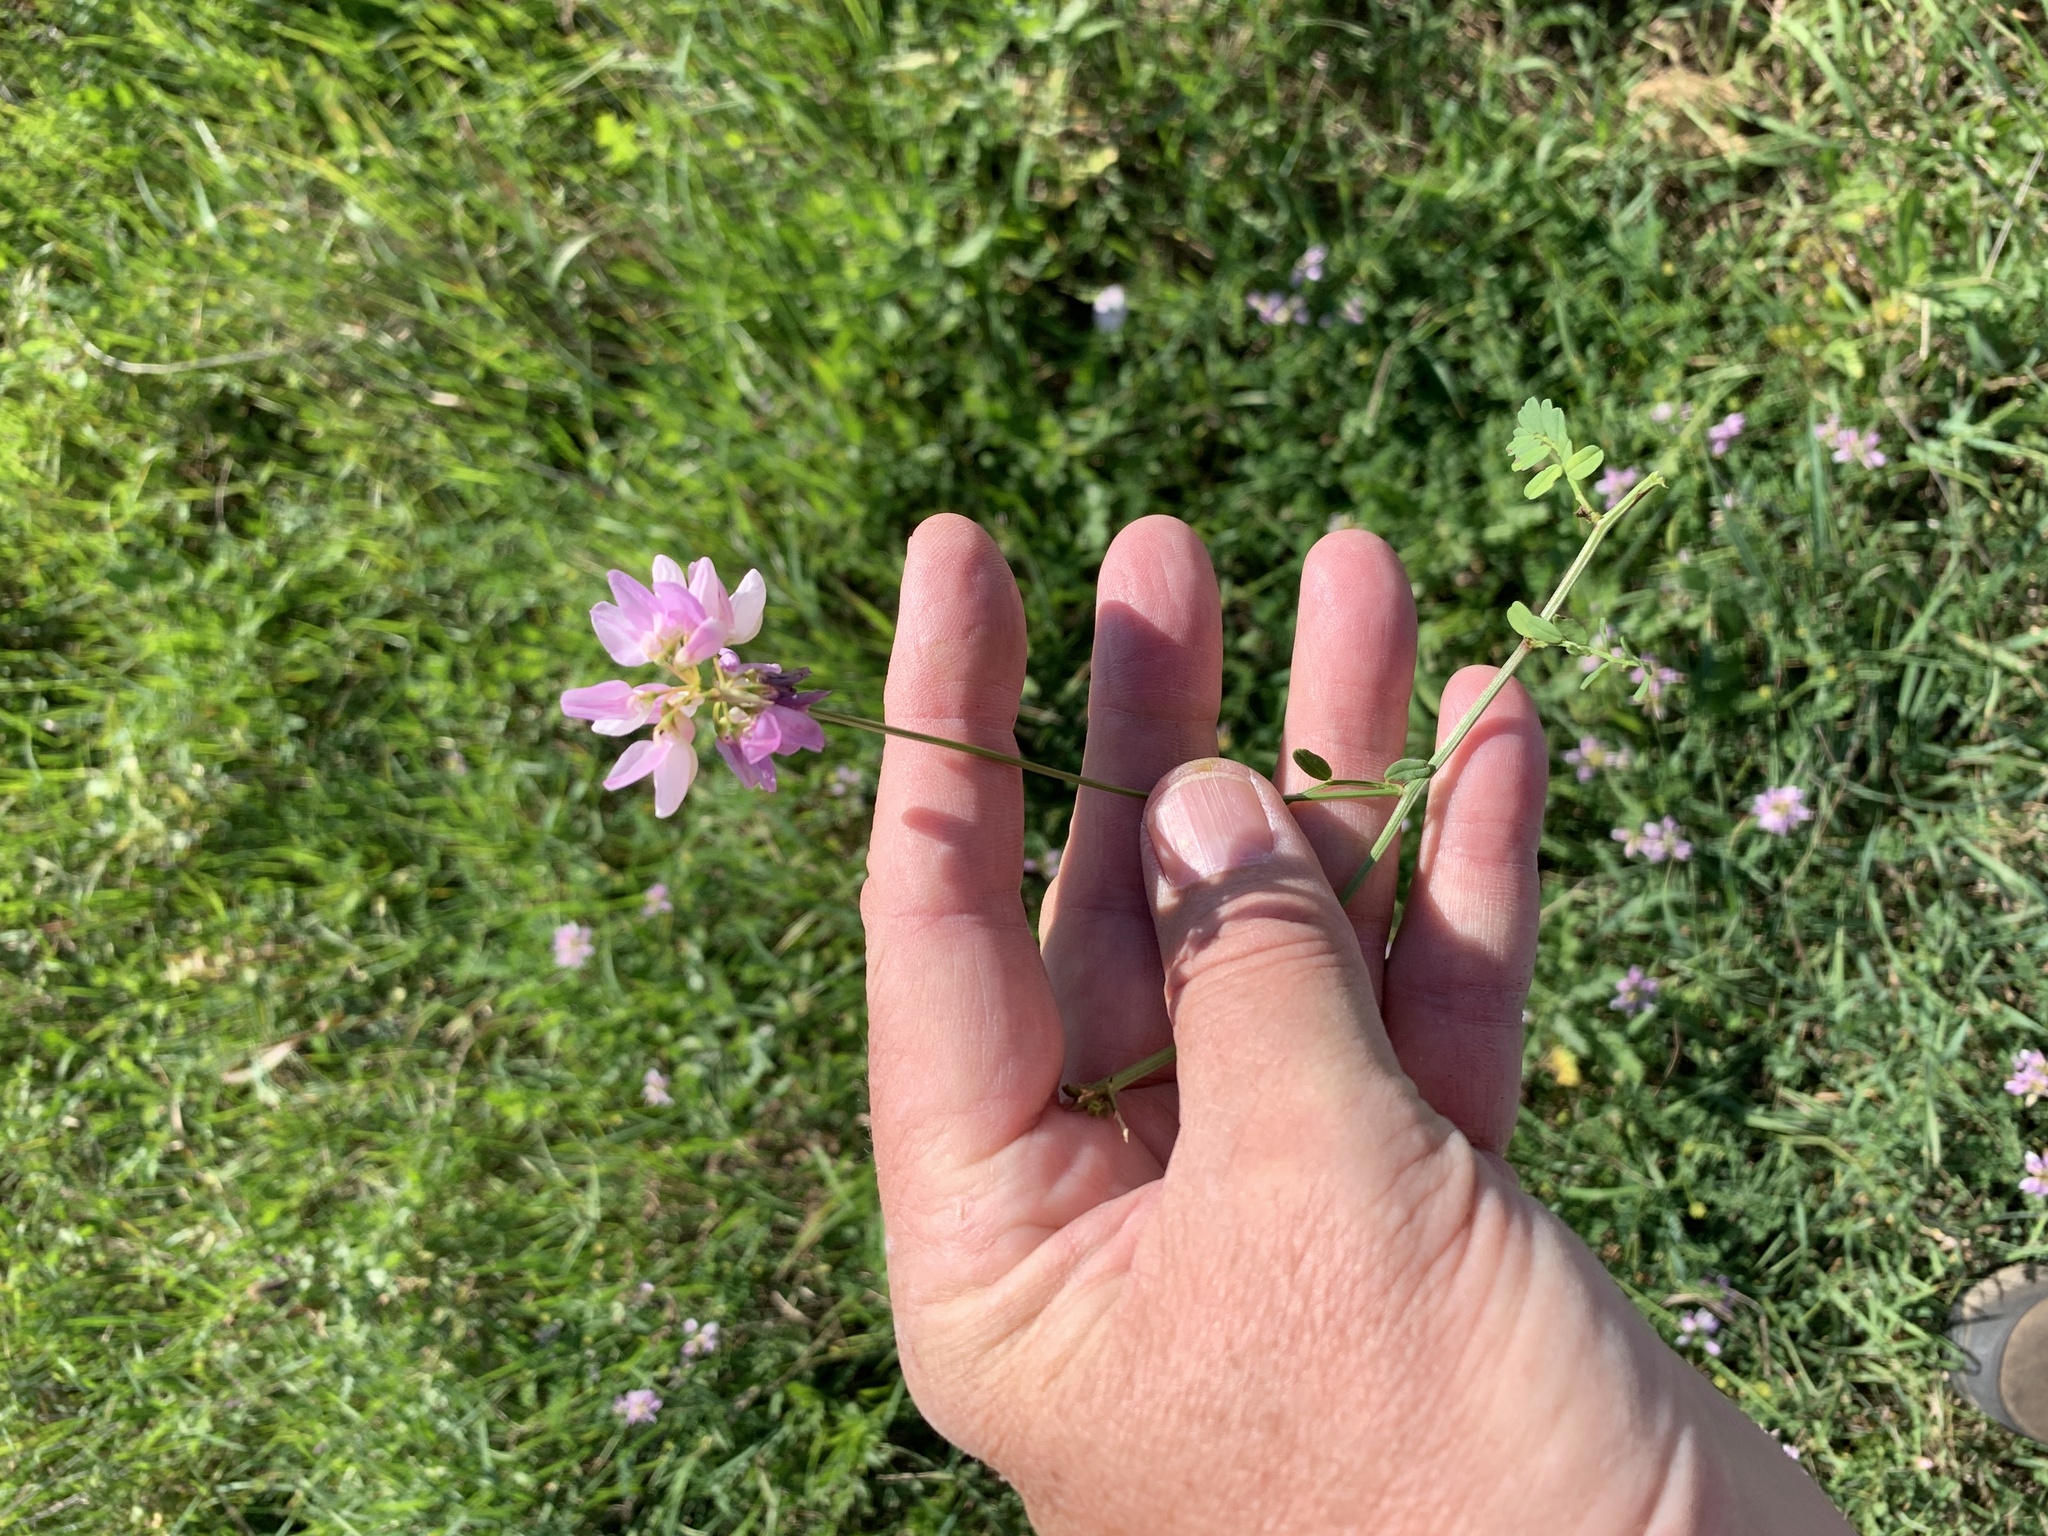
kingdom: Plantae
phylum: Tracheophyta
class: Magnoliopsida
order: Fabales
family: Fabaceae
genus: Coronilla
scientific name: Coronilla varia
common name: Crownvetch
